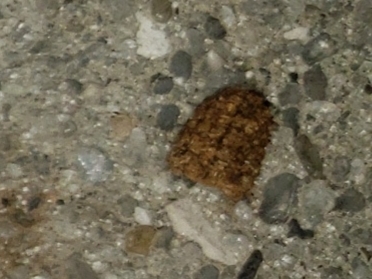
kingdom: Animalia
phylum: Arthropoda
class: Insecta
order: Lepidoptera
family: Saturniidae
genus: Anisota
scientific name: Anisota virginiensis
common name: Pink striped oakworm moth
